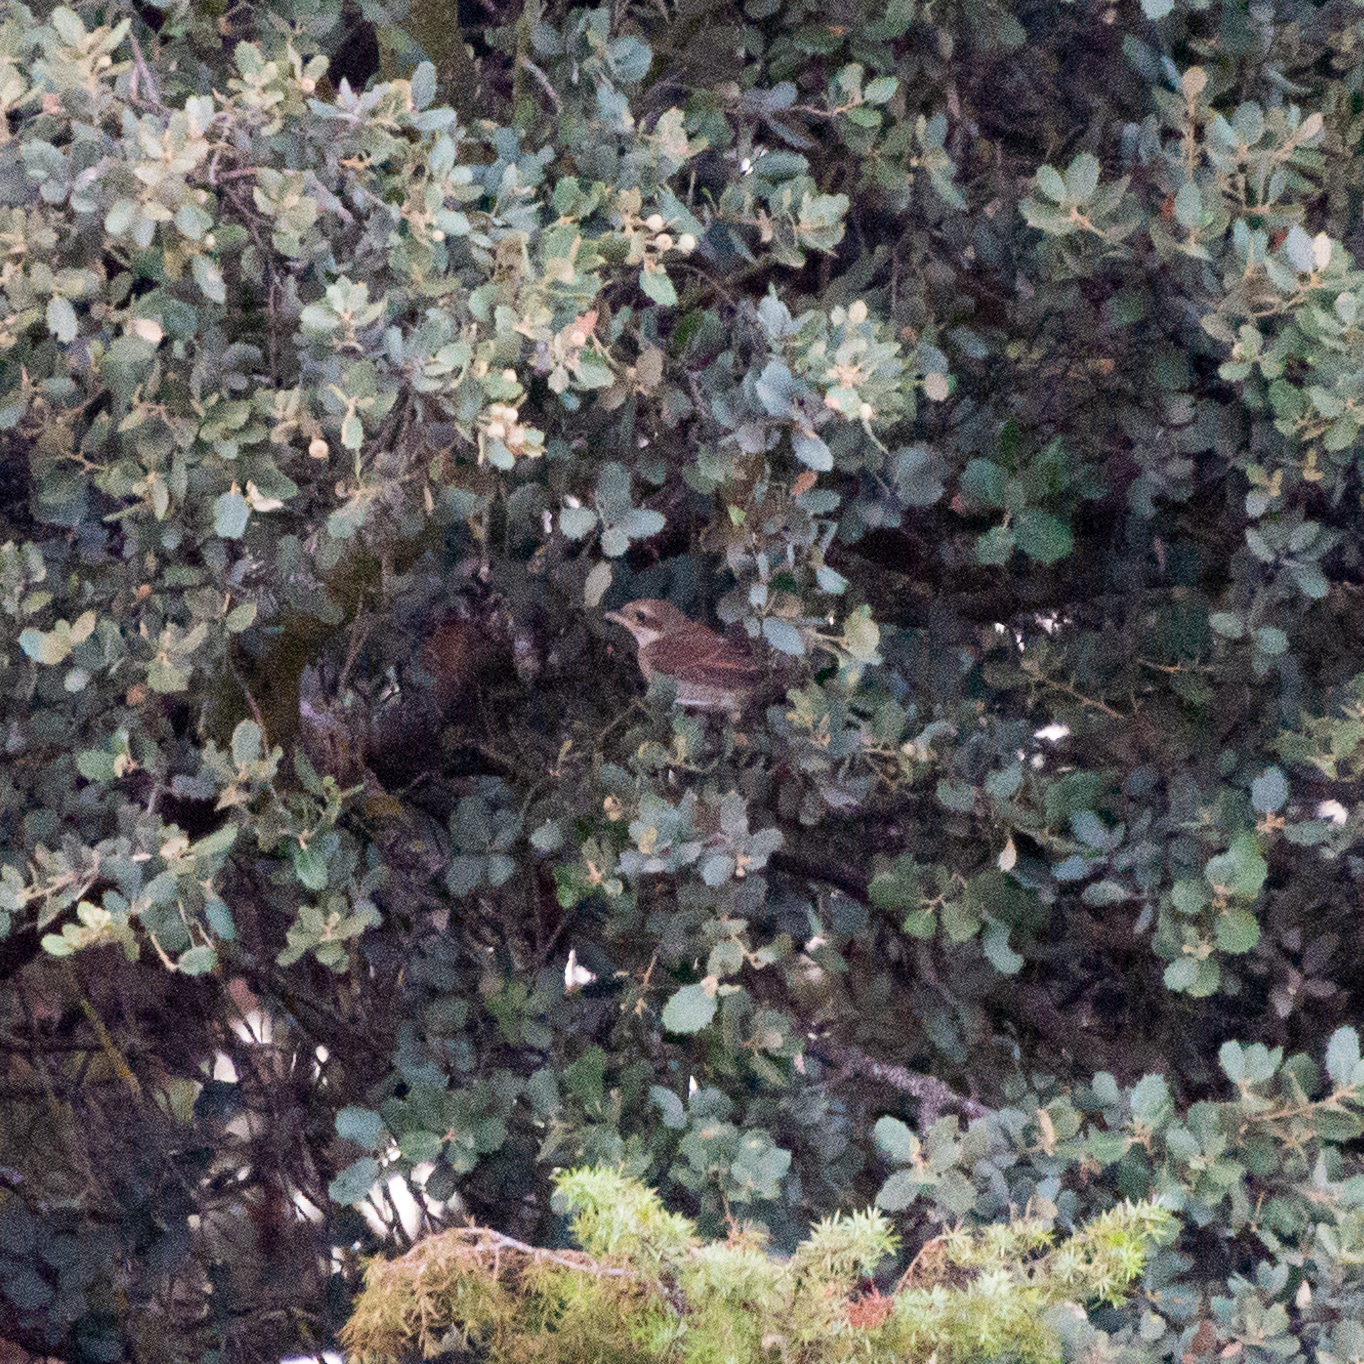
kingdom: Animalia
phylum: Chordata
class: Aves
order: Passeriformes
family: Laniidae
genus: Lanius
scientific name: Lanius collurio
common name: Red-backed shrike
